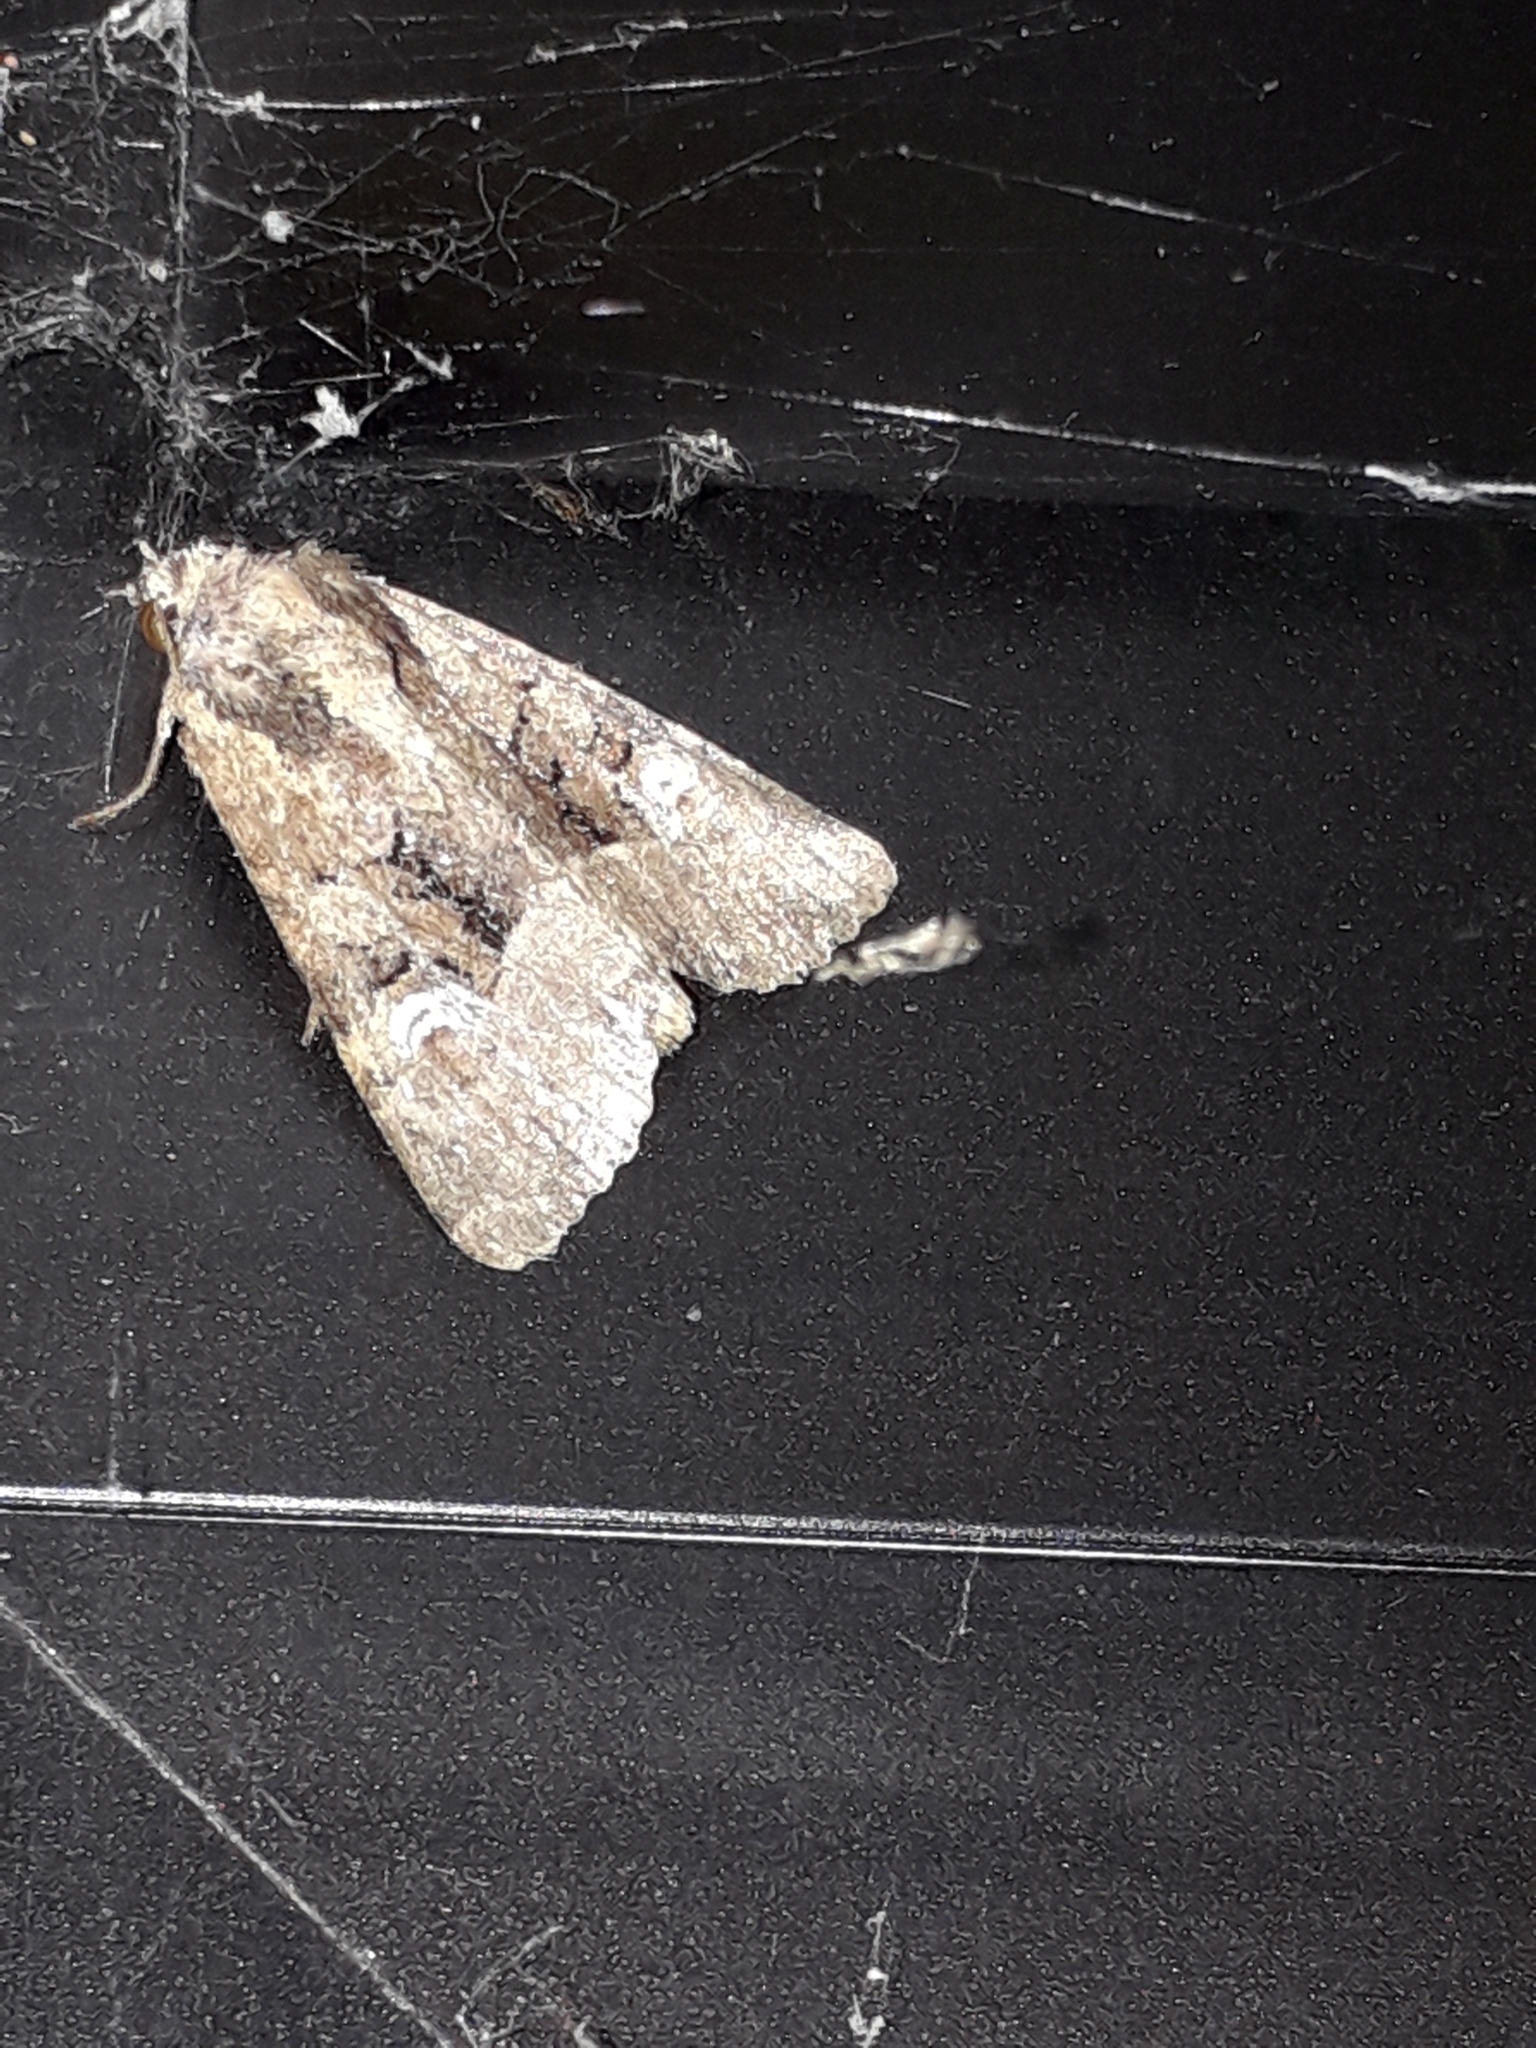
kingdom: Animalia
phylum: Arthropoda
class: Insecta
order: Lepidoptera
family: Noctuidae
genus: Mesapamea
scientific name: Mesapamea
